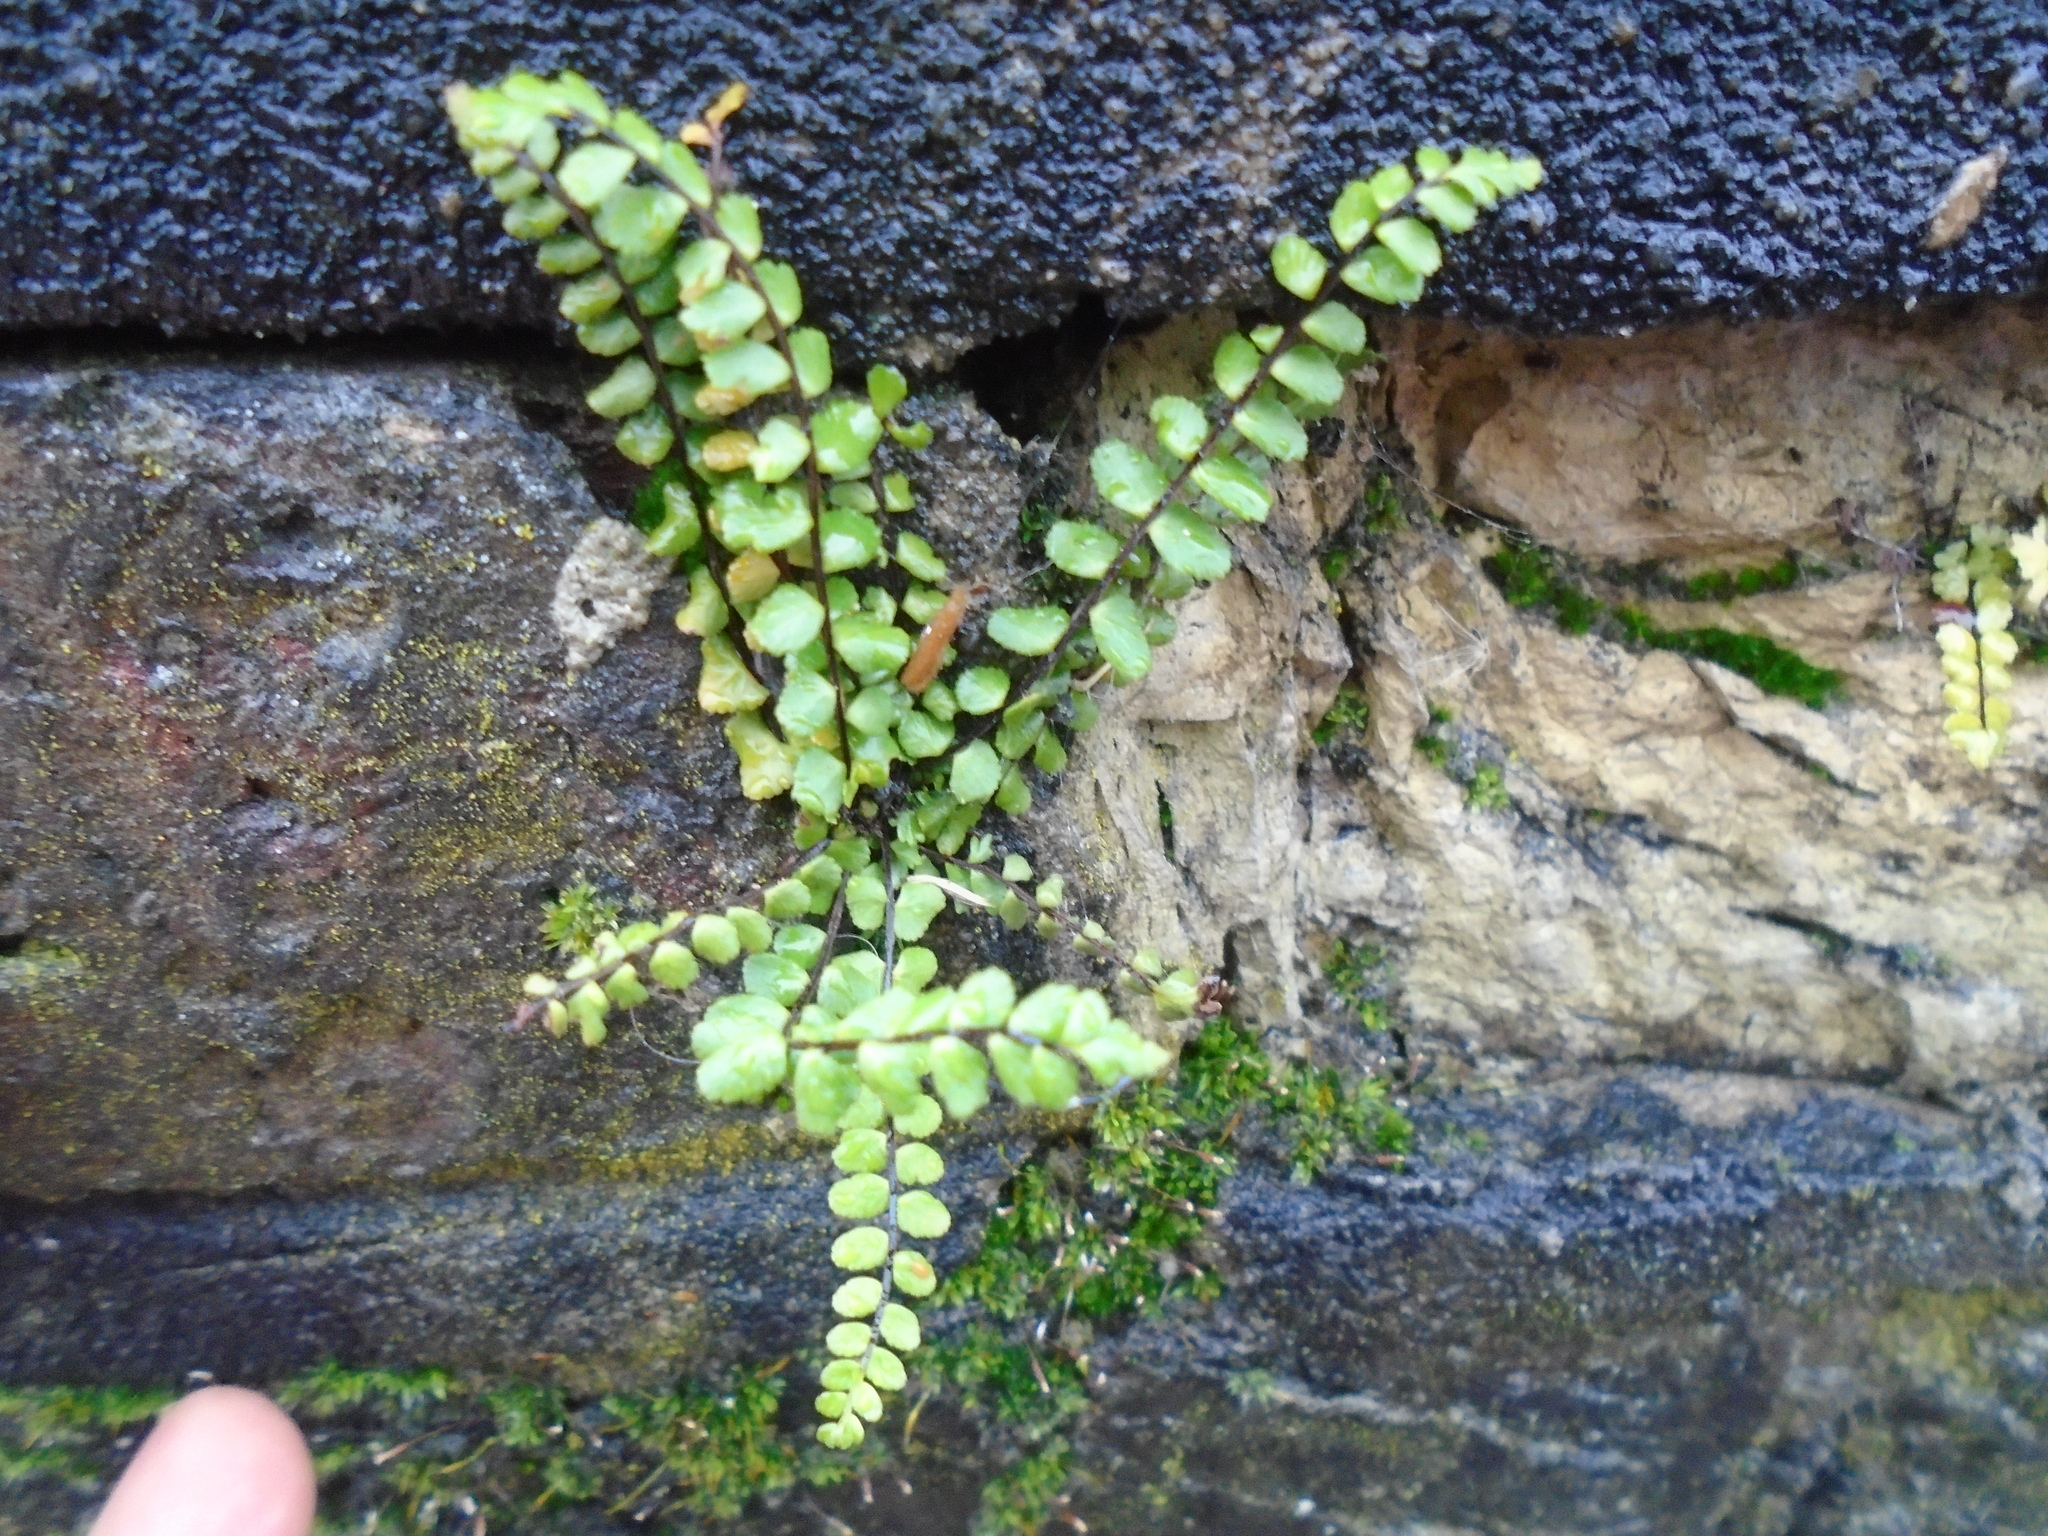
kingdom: Plantae
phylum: Tracheophyta
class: Polypodiopsida
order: Polypodiales
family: Aspleniaceae
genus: Asplenium
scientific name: Asplenium trichomanes
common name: Maidenhair spleenwort
